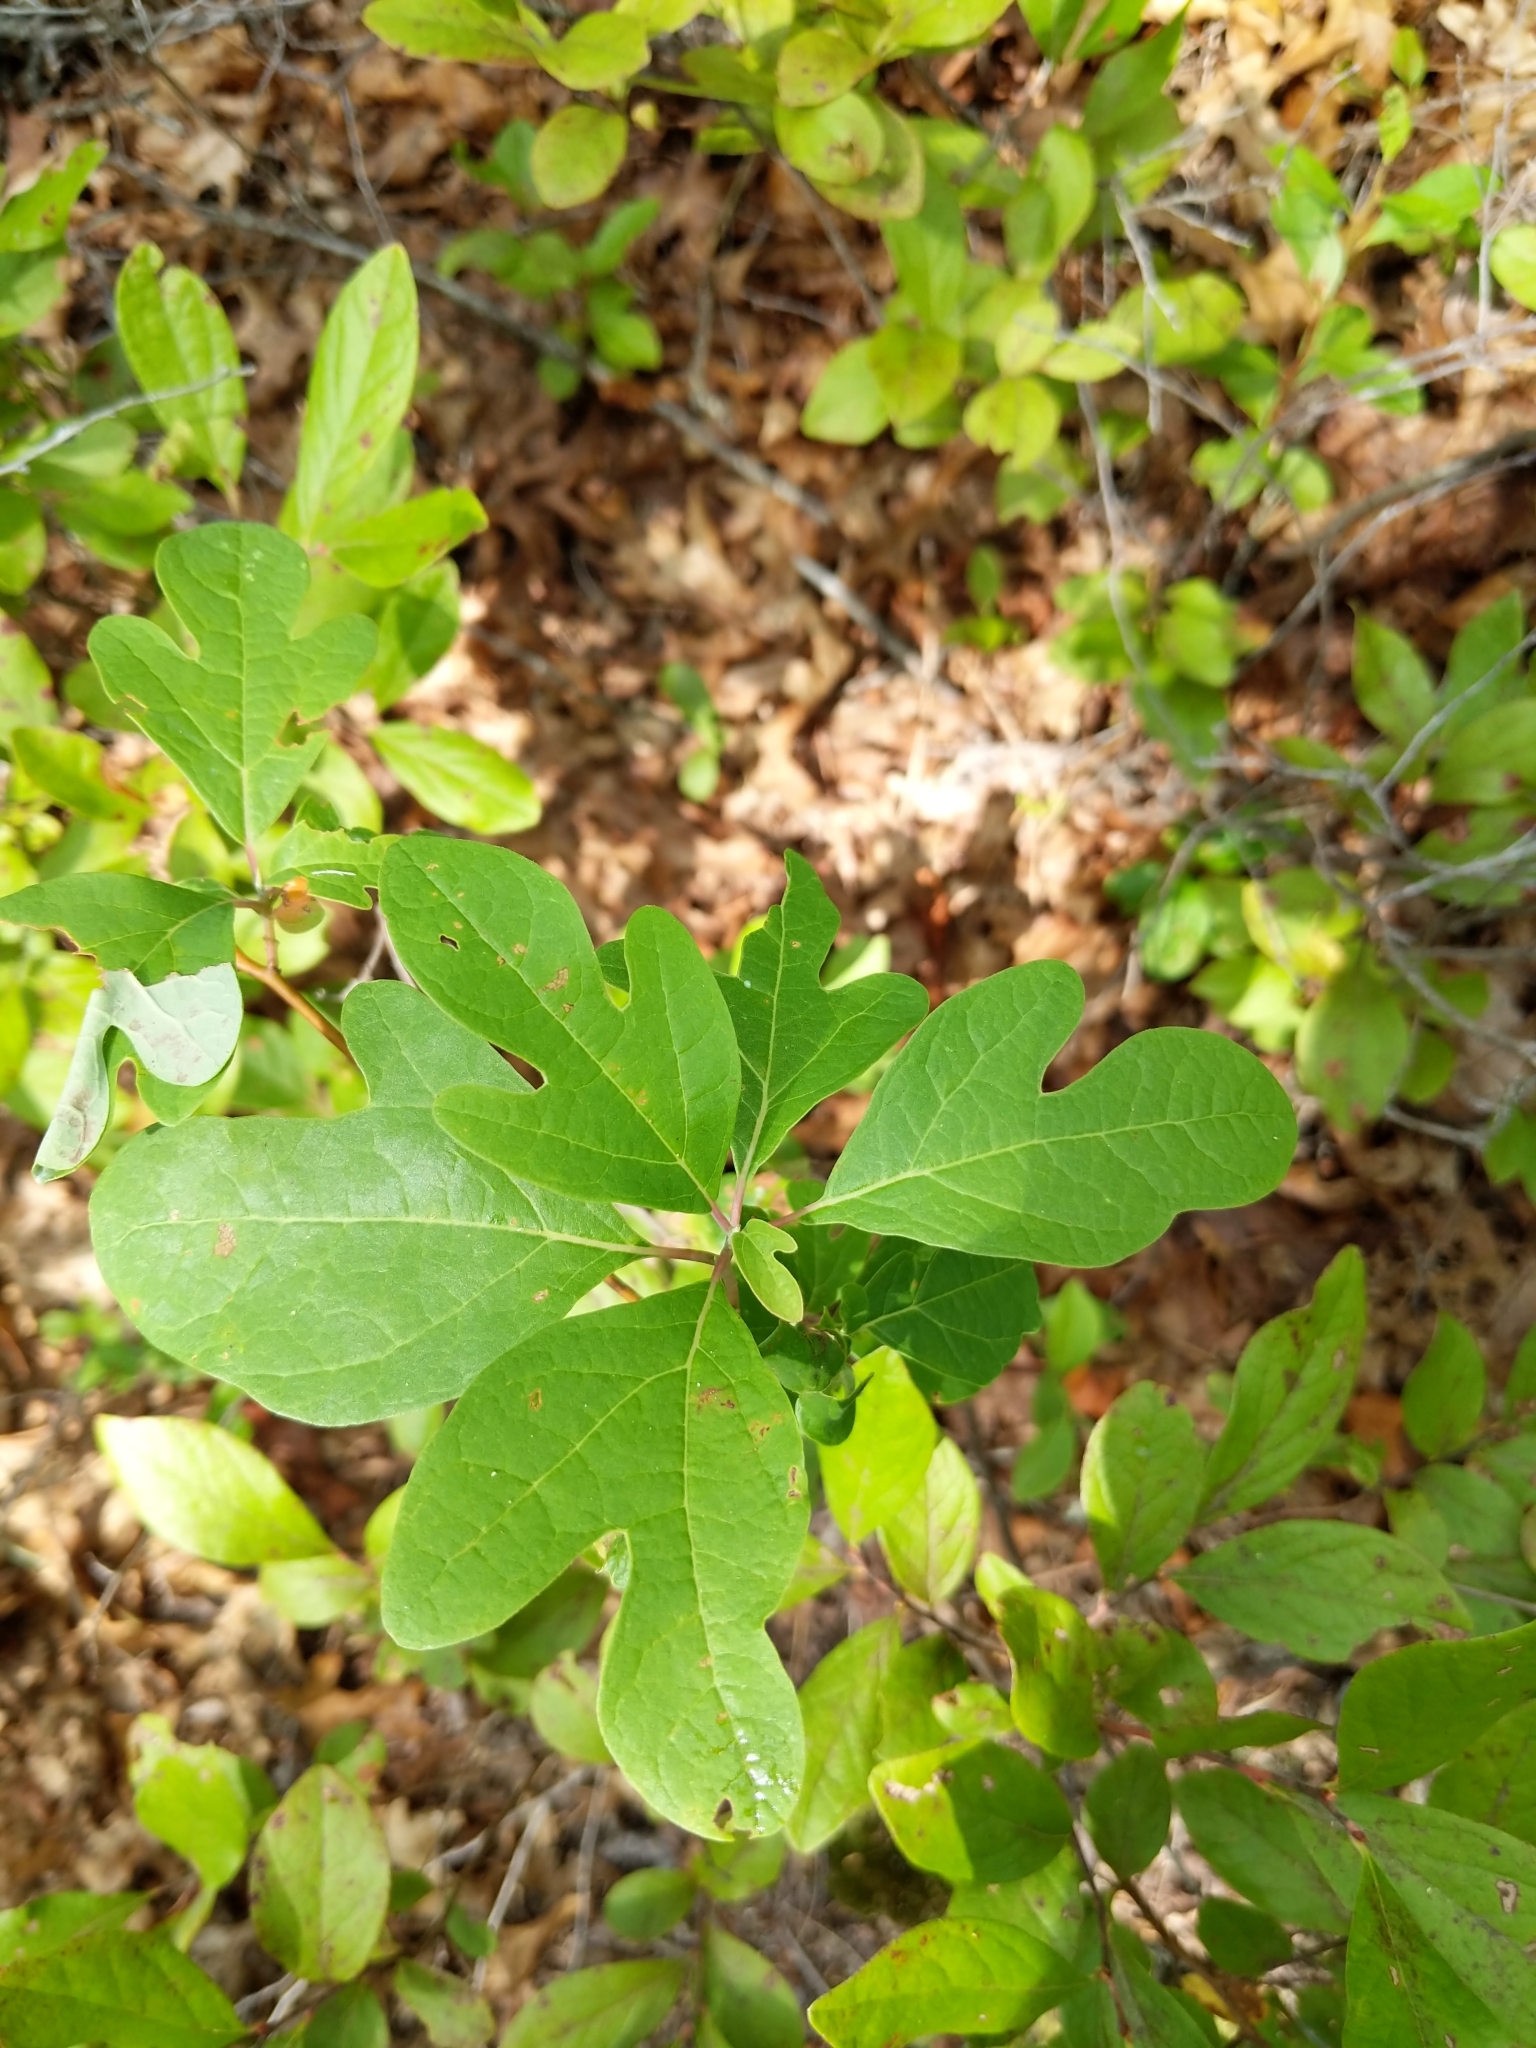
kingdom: Plantae
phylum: Tracheophyta
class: Magnoliopsida
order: Laurales
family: Lauraceae
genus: Sassafras
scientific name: Sassafras albidum
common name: Sassafras
